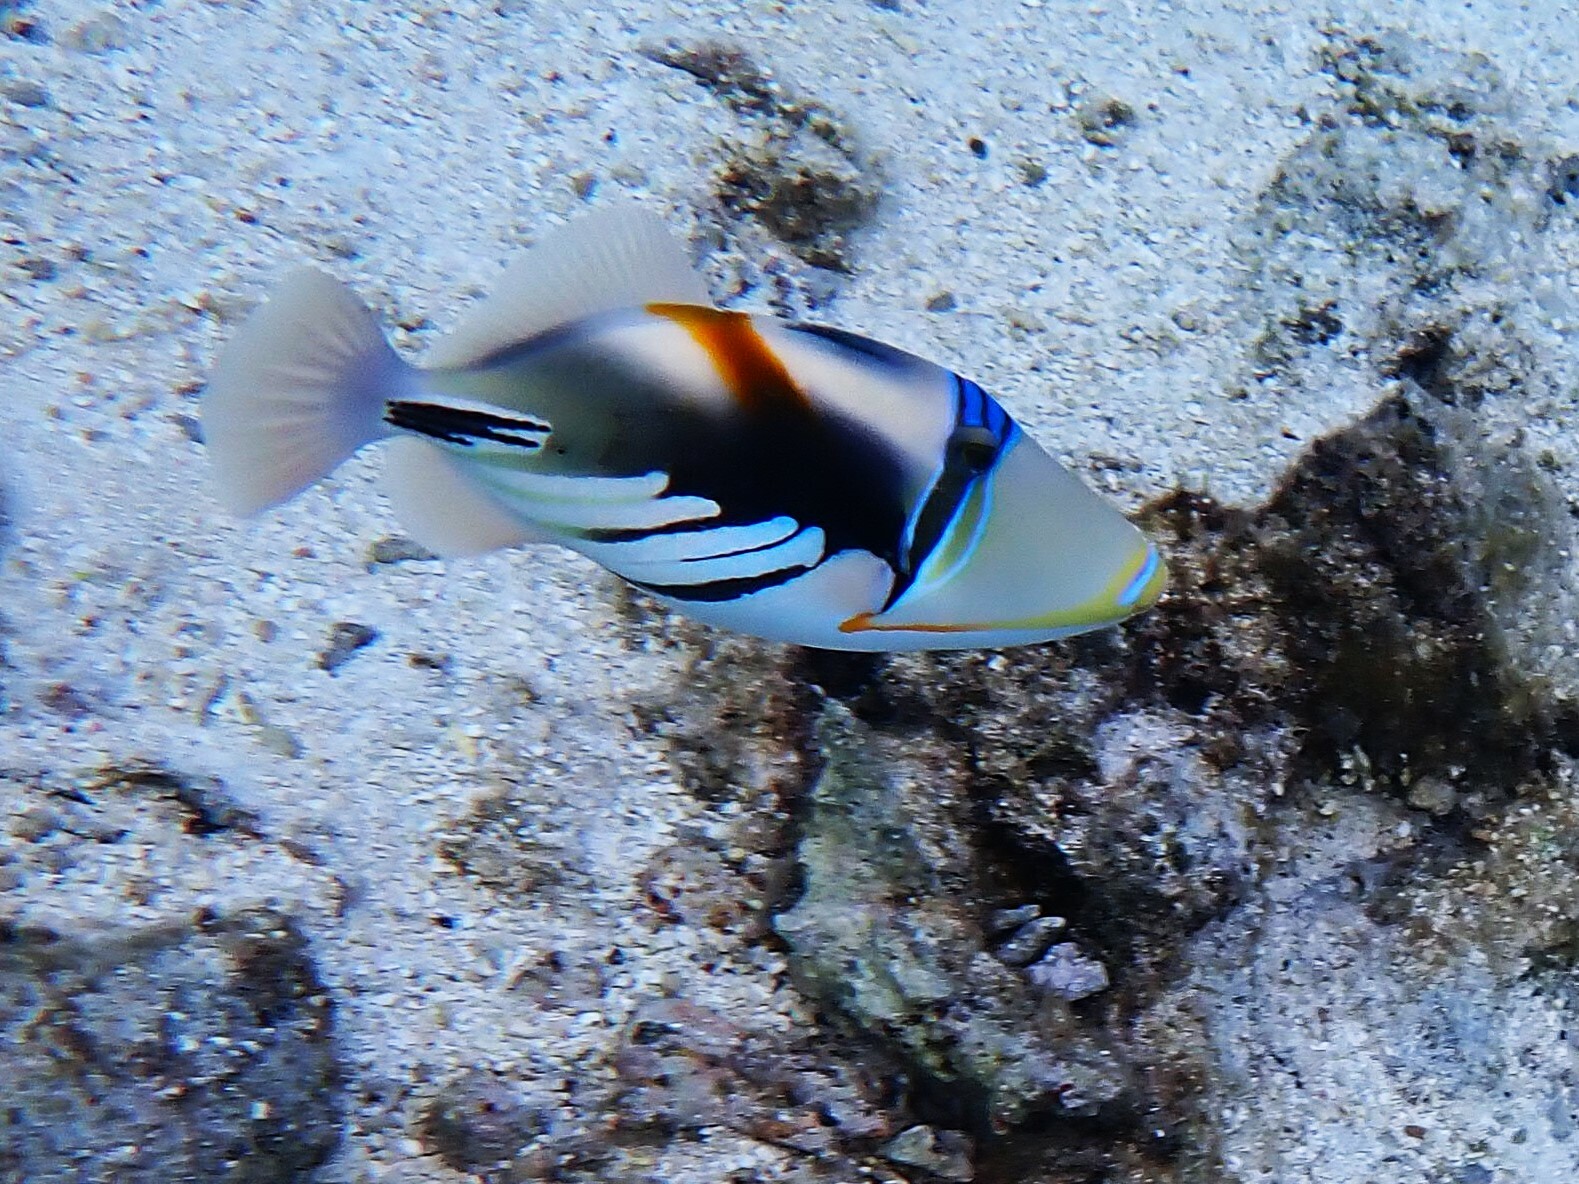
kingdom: Animalia
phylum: Chordata
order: Tetraodontiformes
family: Balistidae
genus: Rhinecanthus
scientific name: Rhinecanthus aculeatus
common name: White-banded triggerfish
